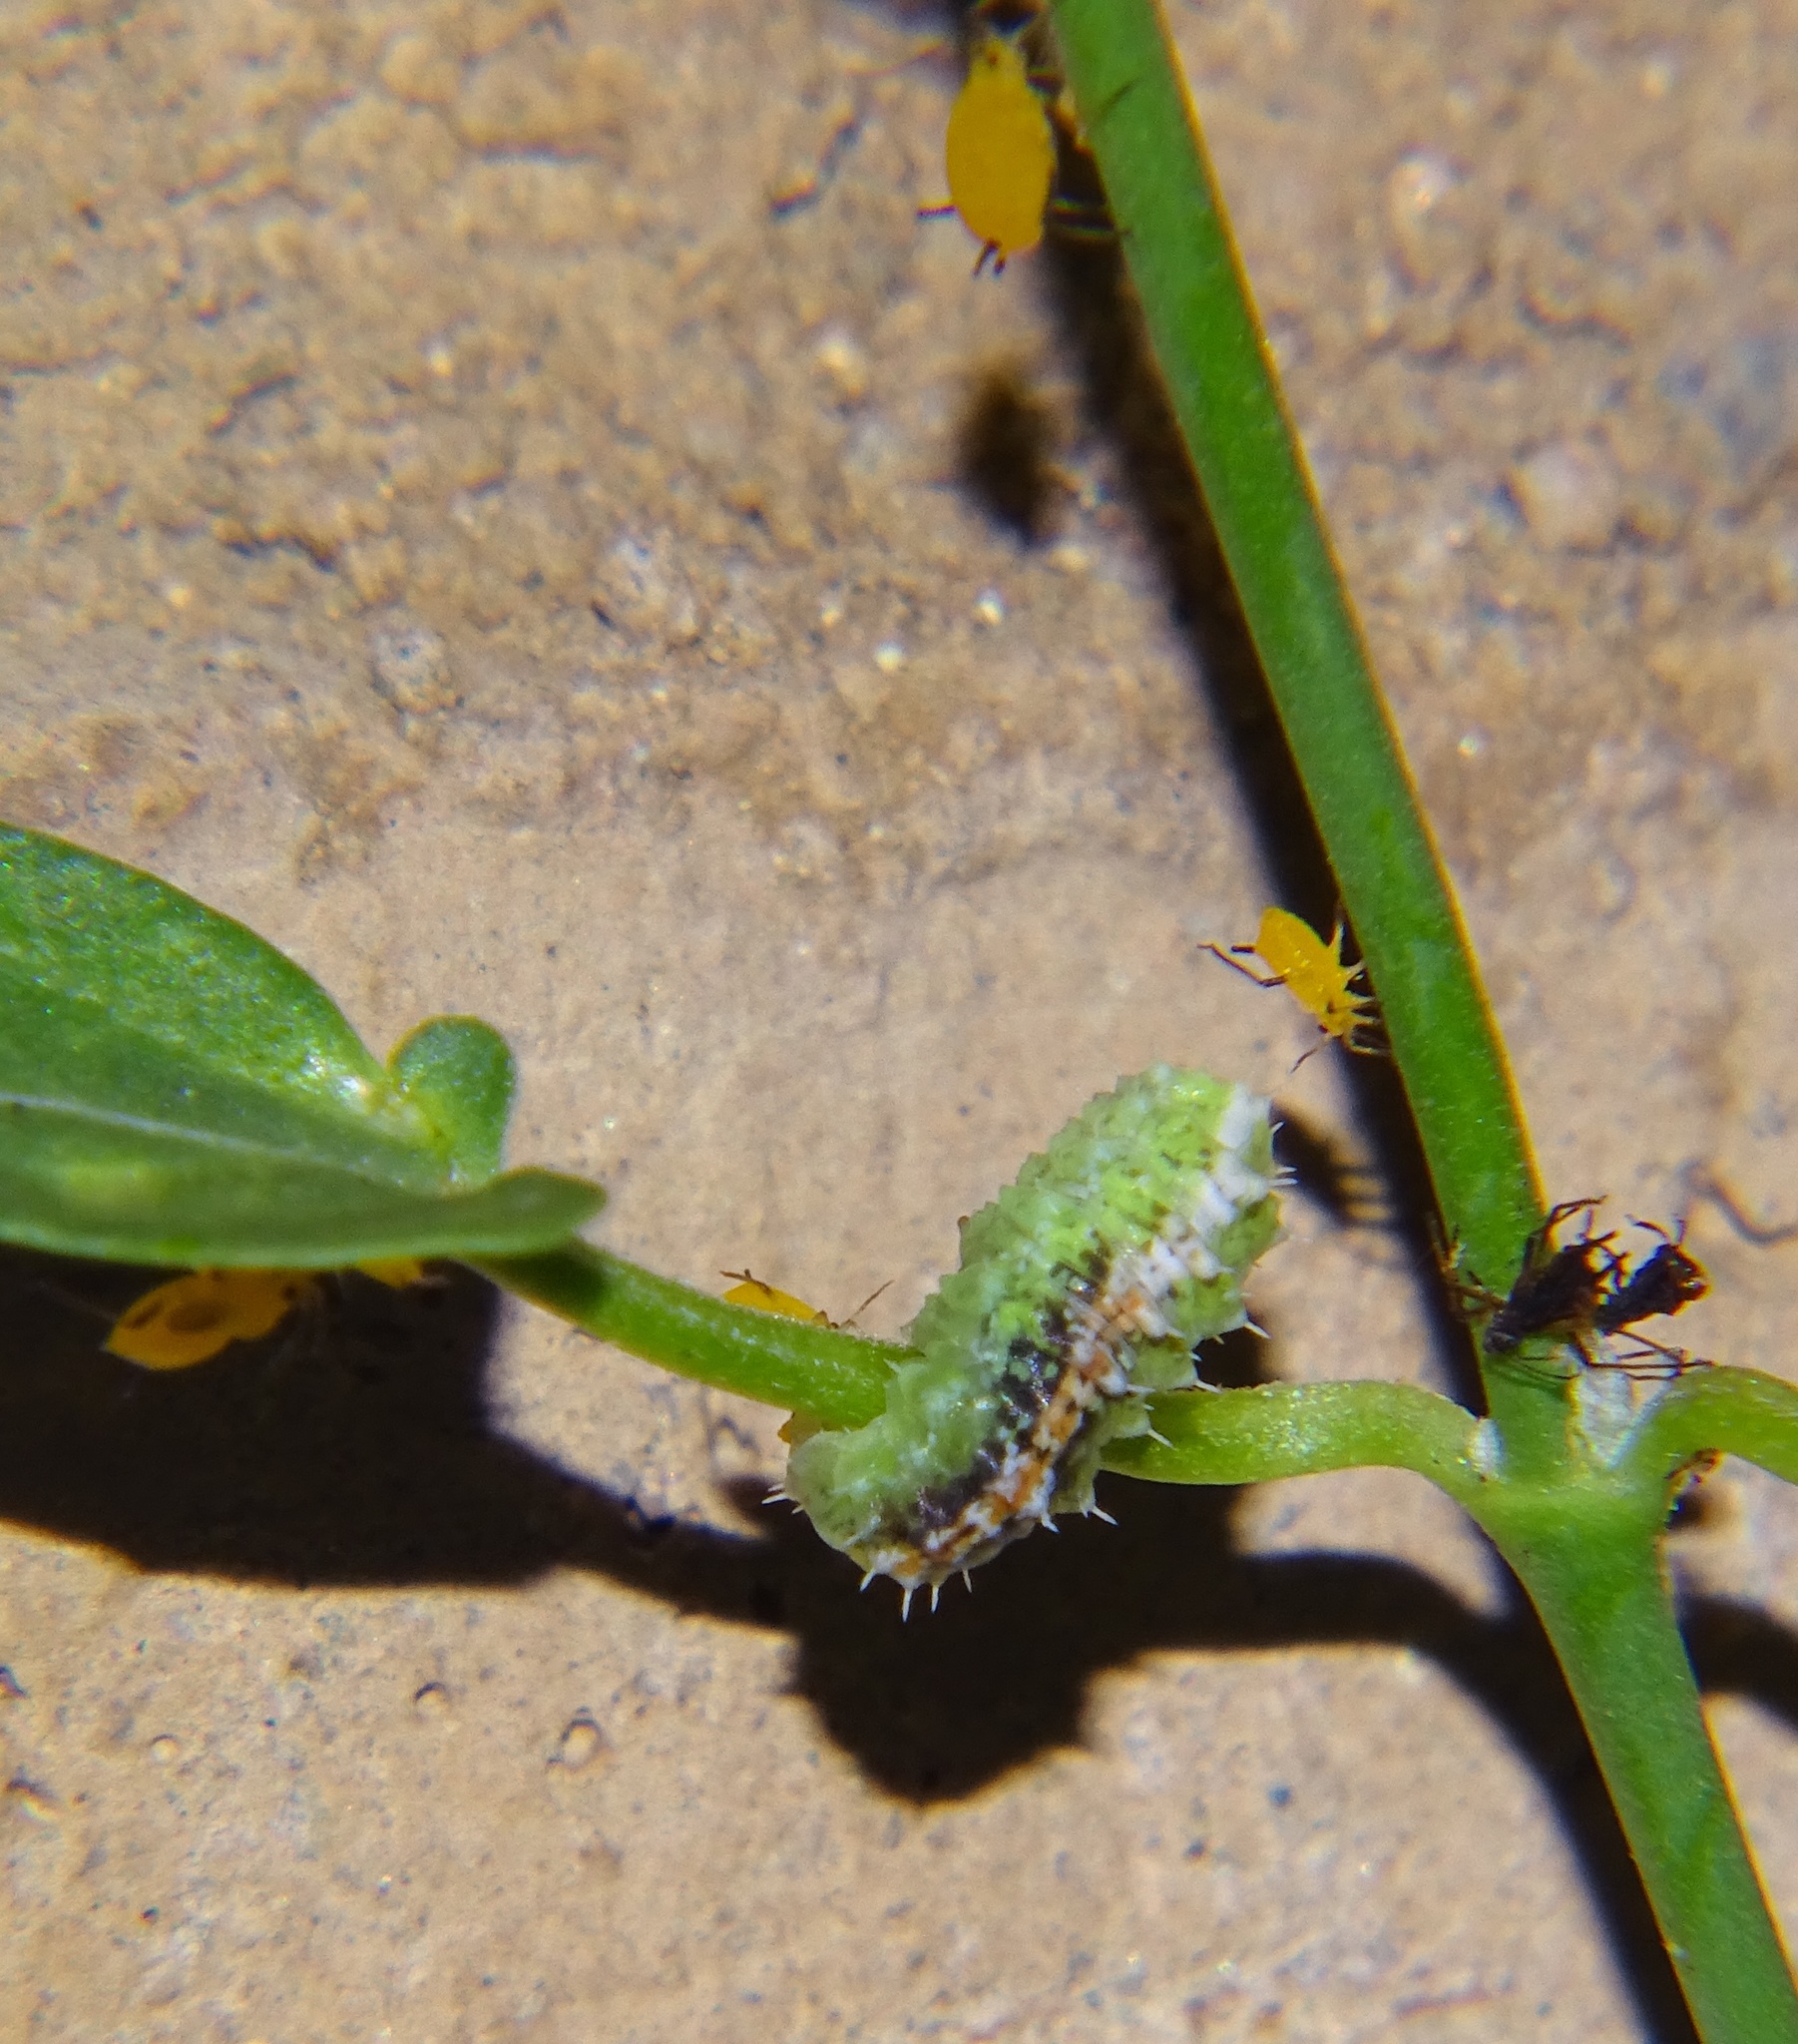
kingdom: Animalia
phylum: Arthropoda
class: Insecta
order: Diptera
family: Syrphidae
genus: Dioprosopa
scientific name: Dioprosopa clavatus
